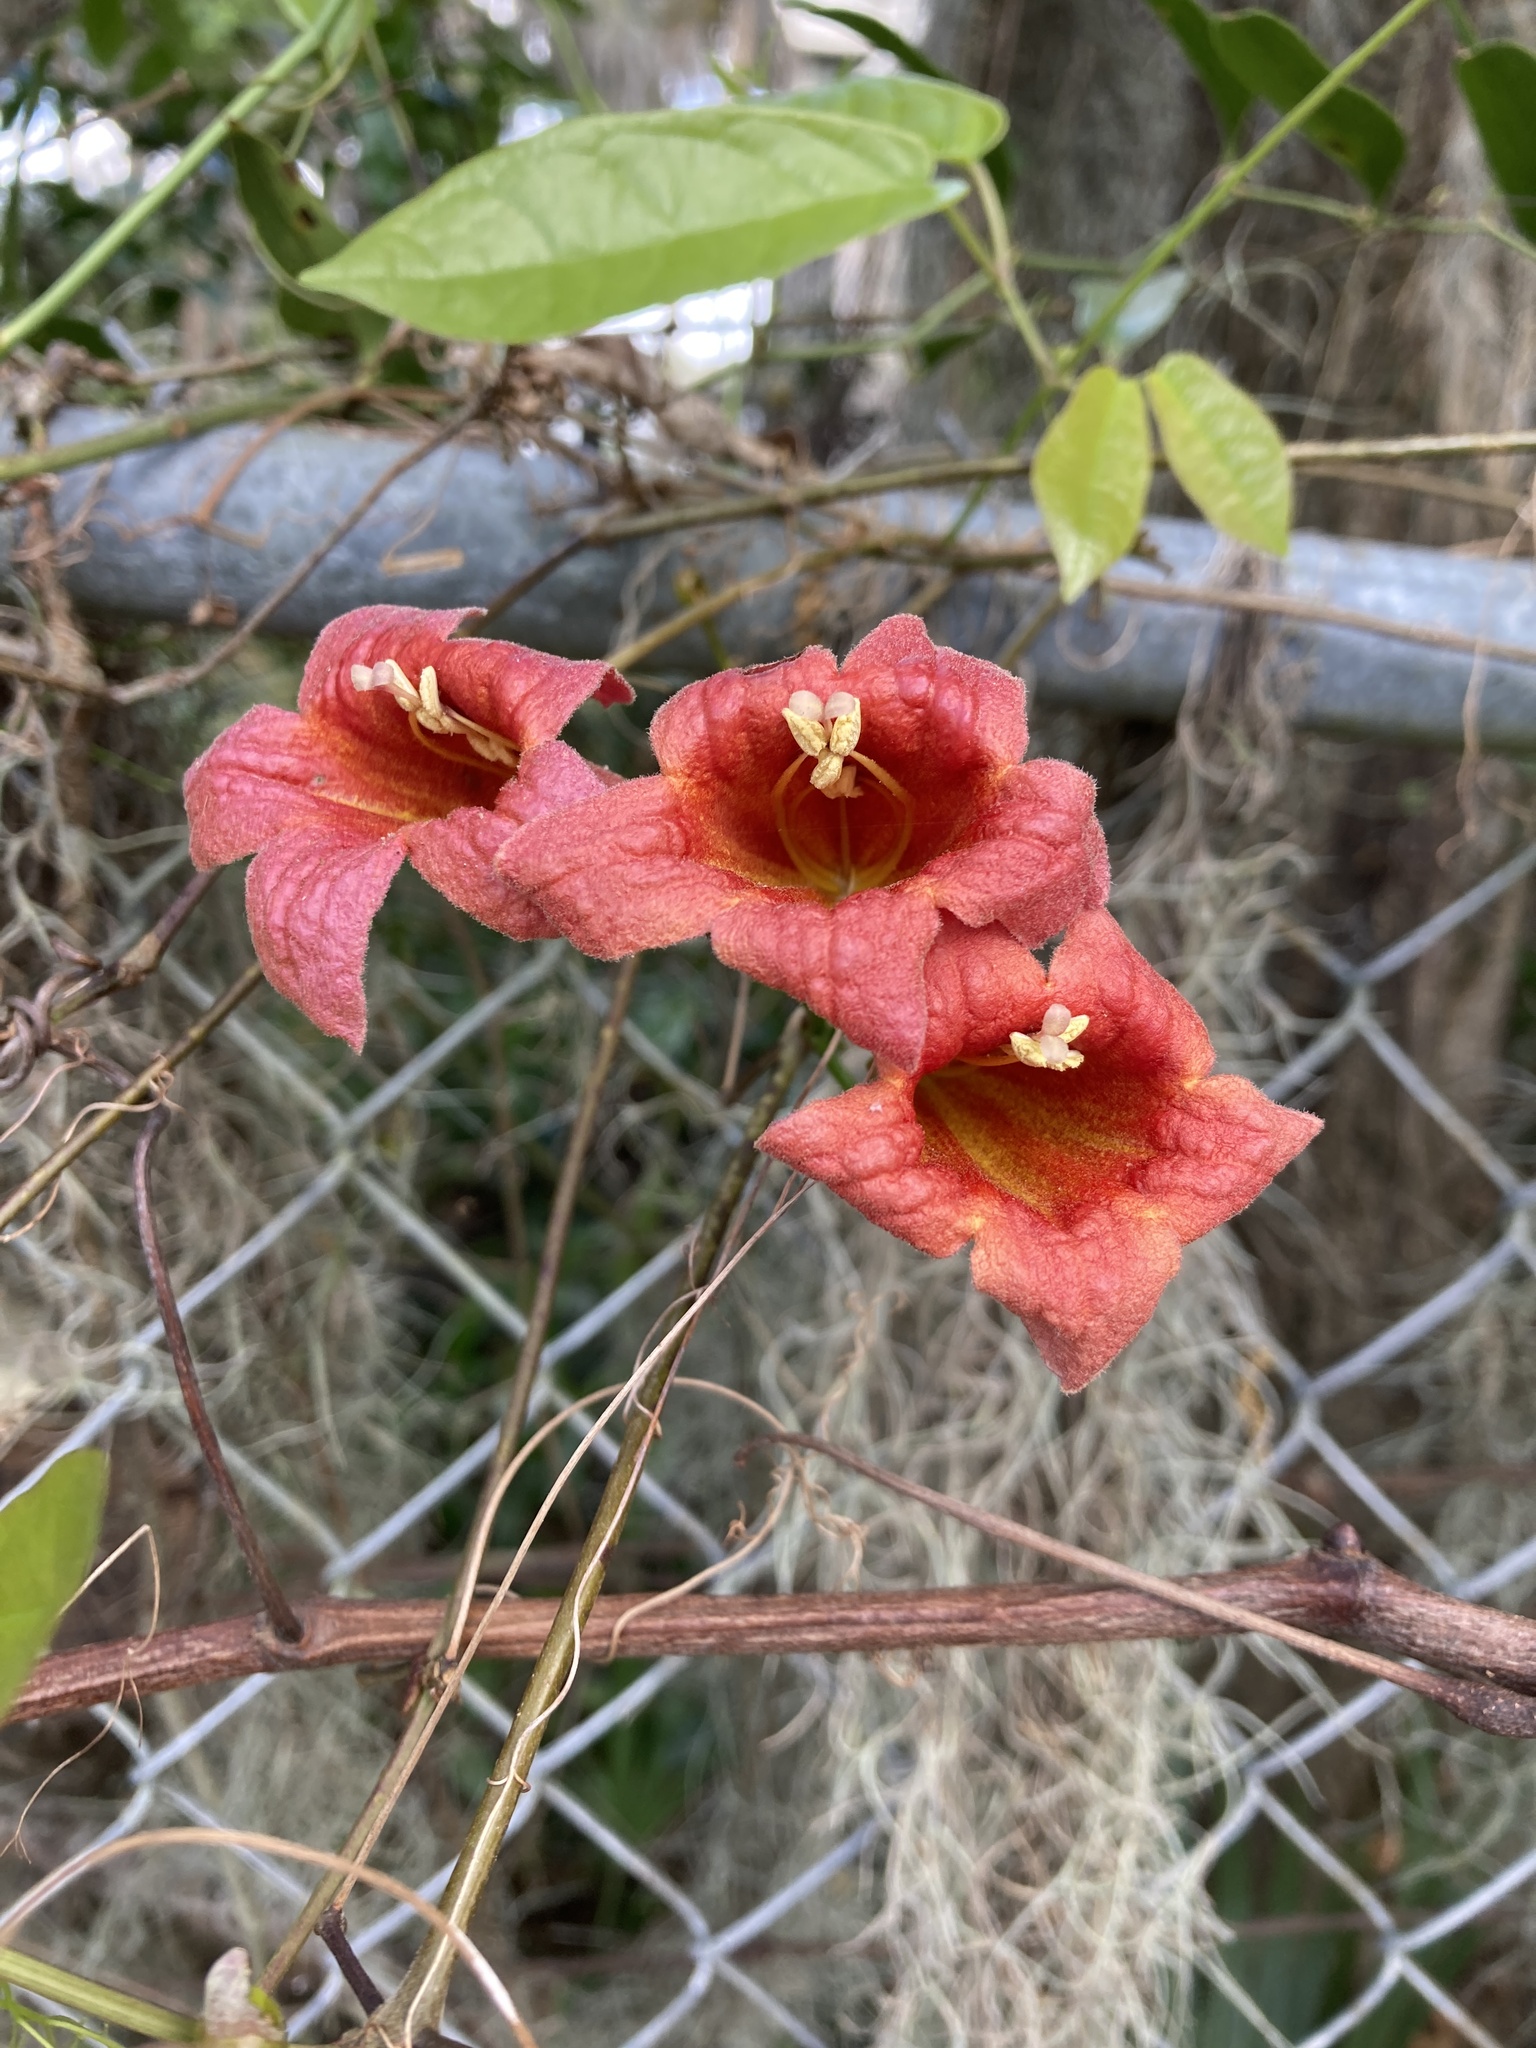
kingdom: Plantae
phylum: Tracheophyta
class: Magnoliopsida
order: Lamiales
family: Bignoniaceae
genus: Bignonia
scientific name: Bignonia capreolata
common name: Crossvine
